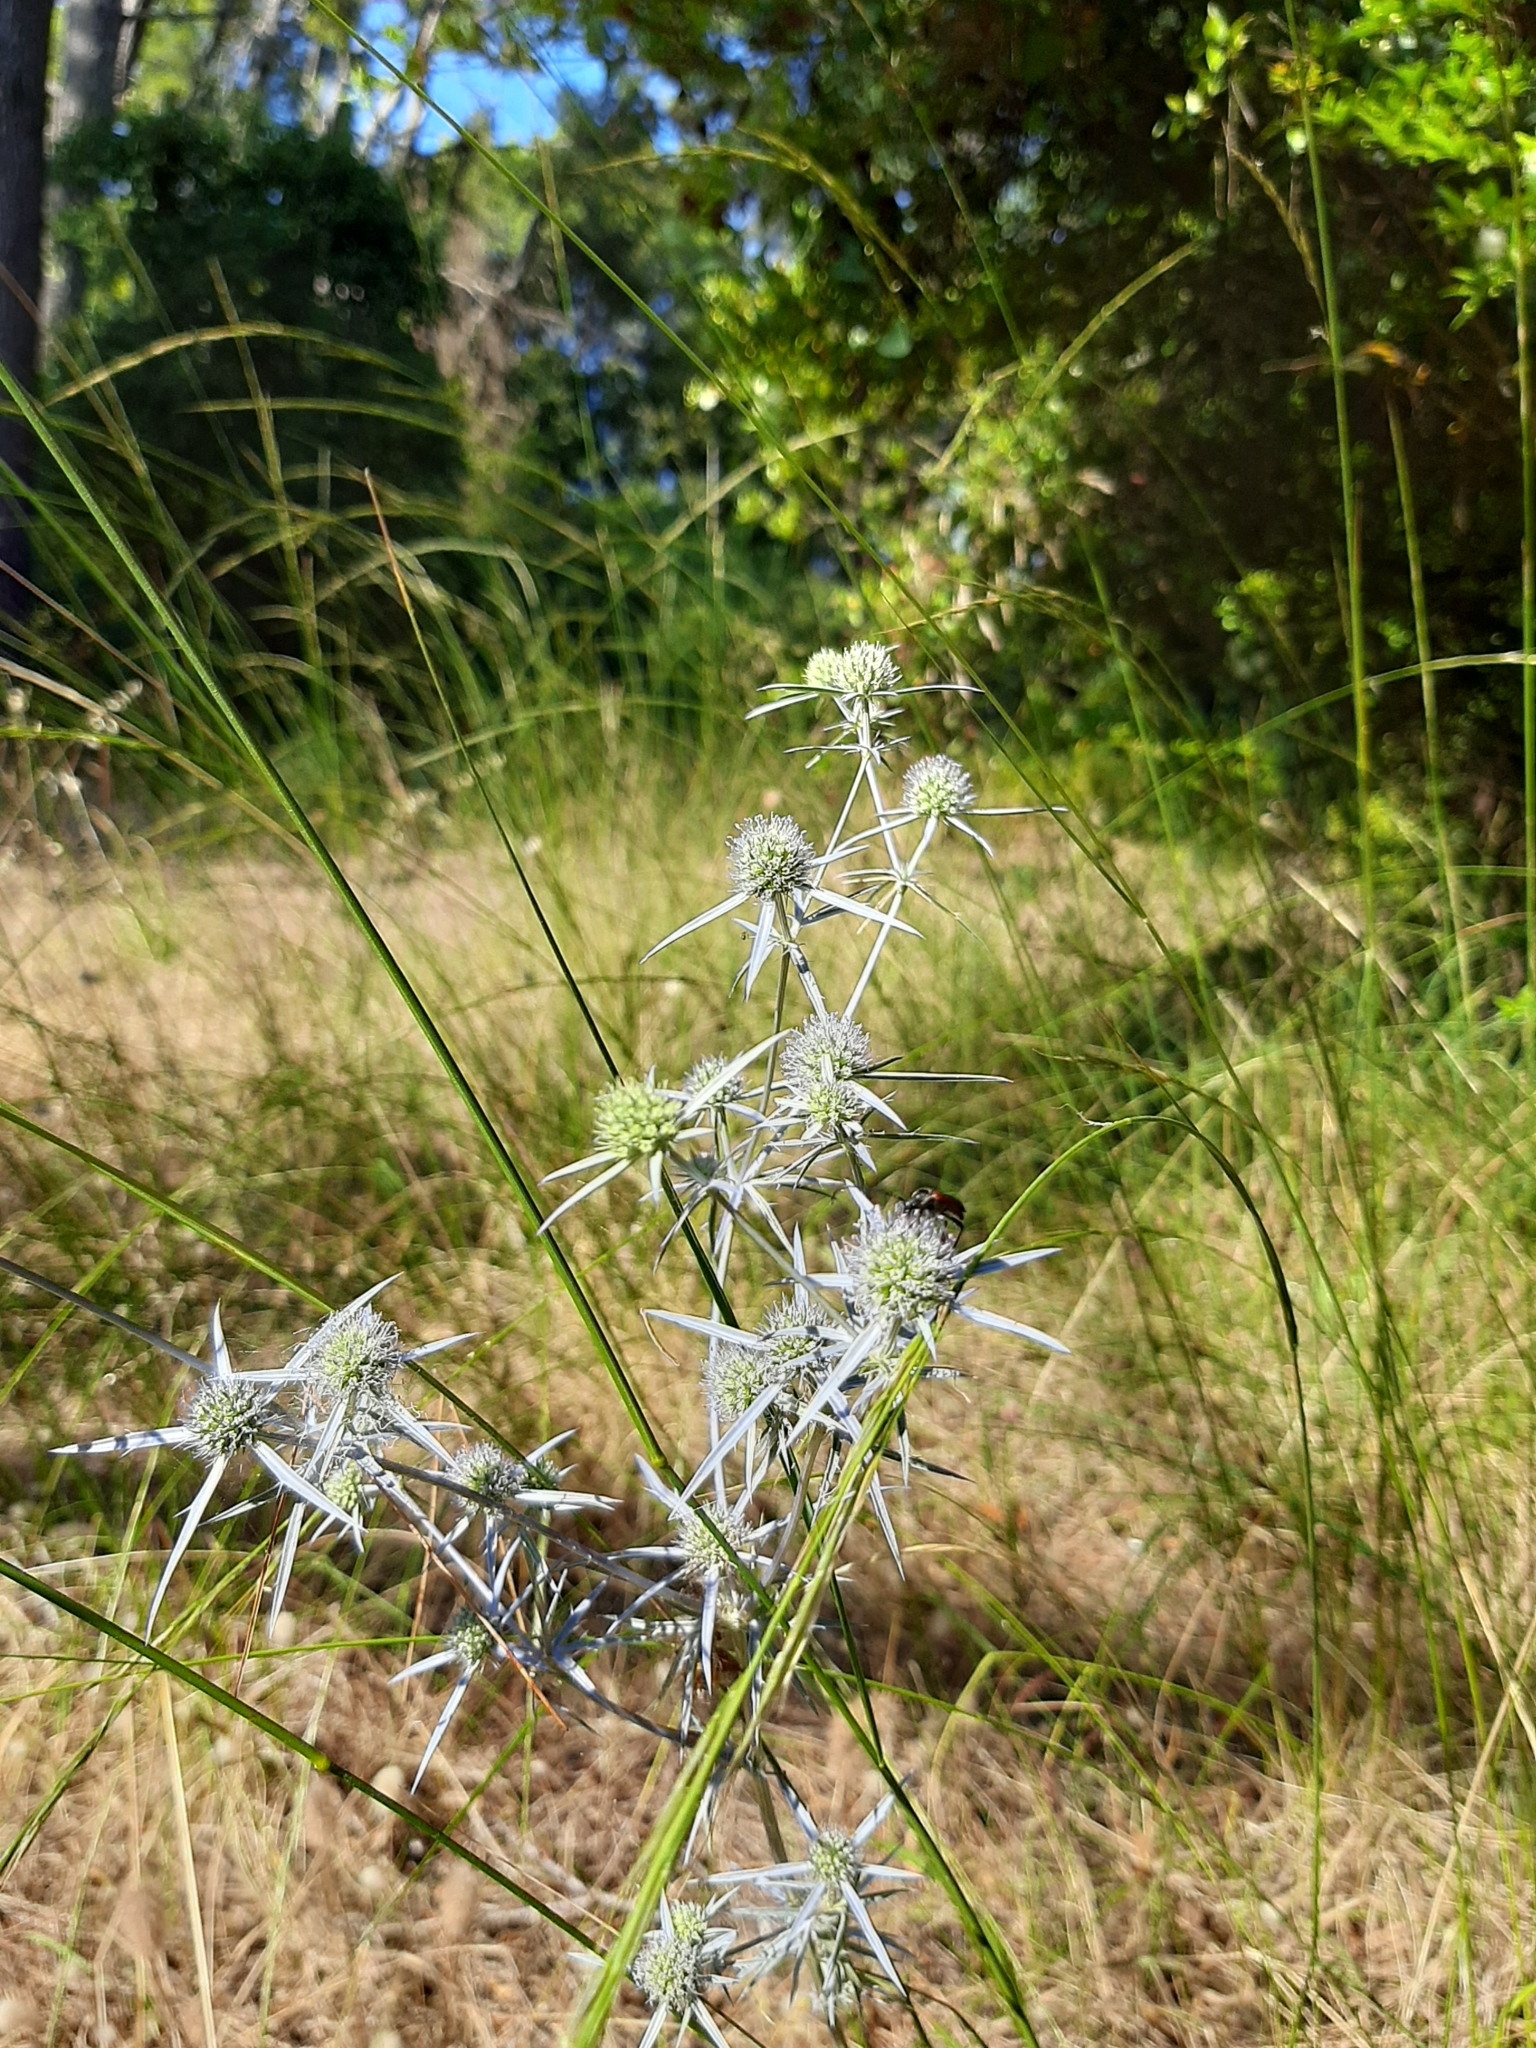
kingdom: Plantae
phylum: Tracheophyta
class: Magnoliopsida
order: Apiales
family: Apiaceae
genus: Eryngium
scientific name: Eryngium campestre
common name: Field eryngo
